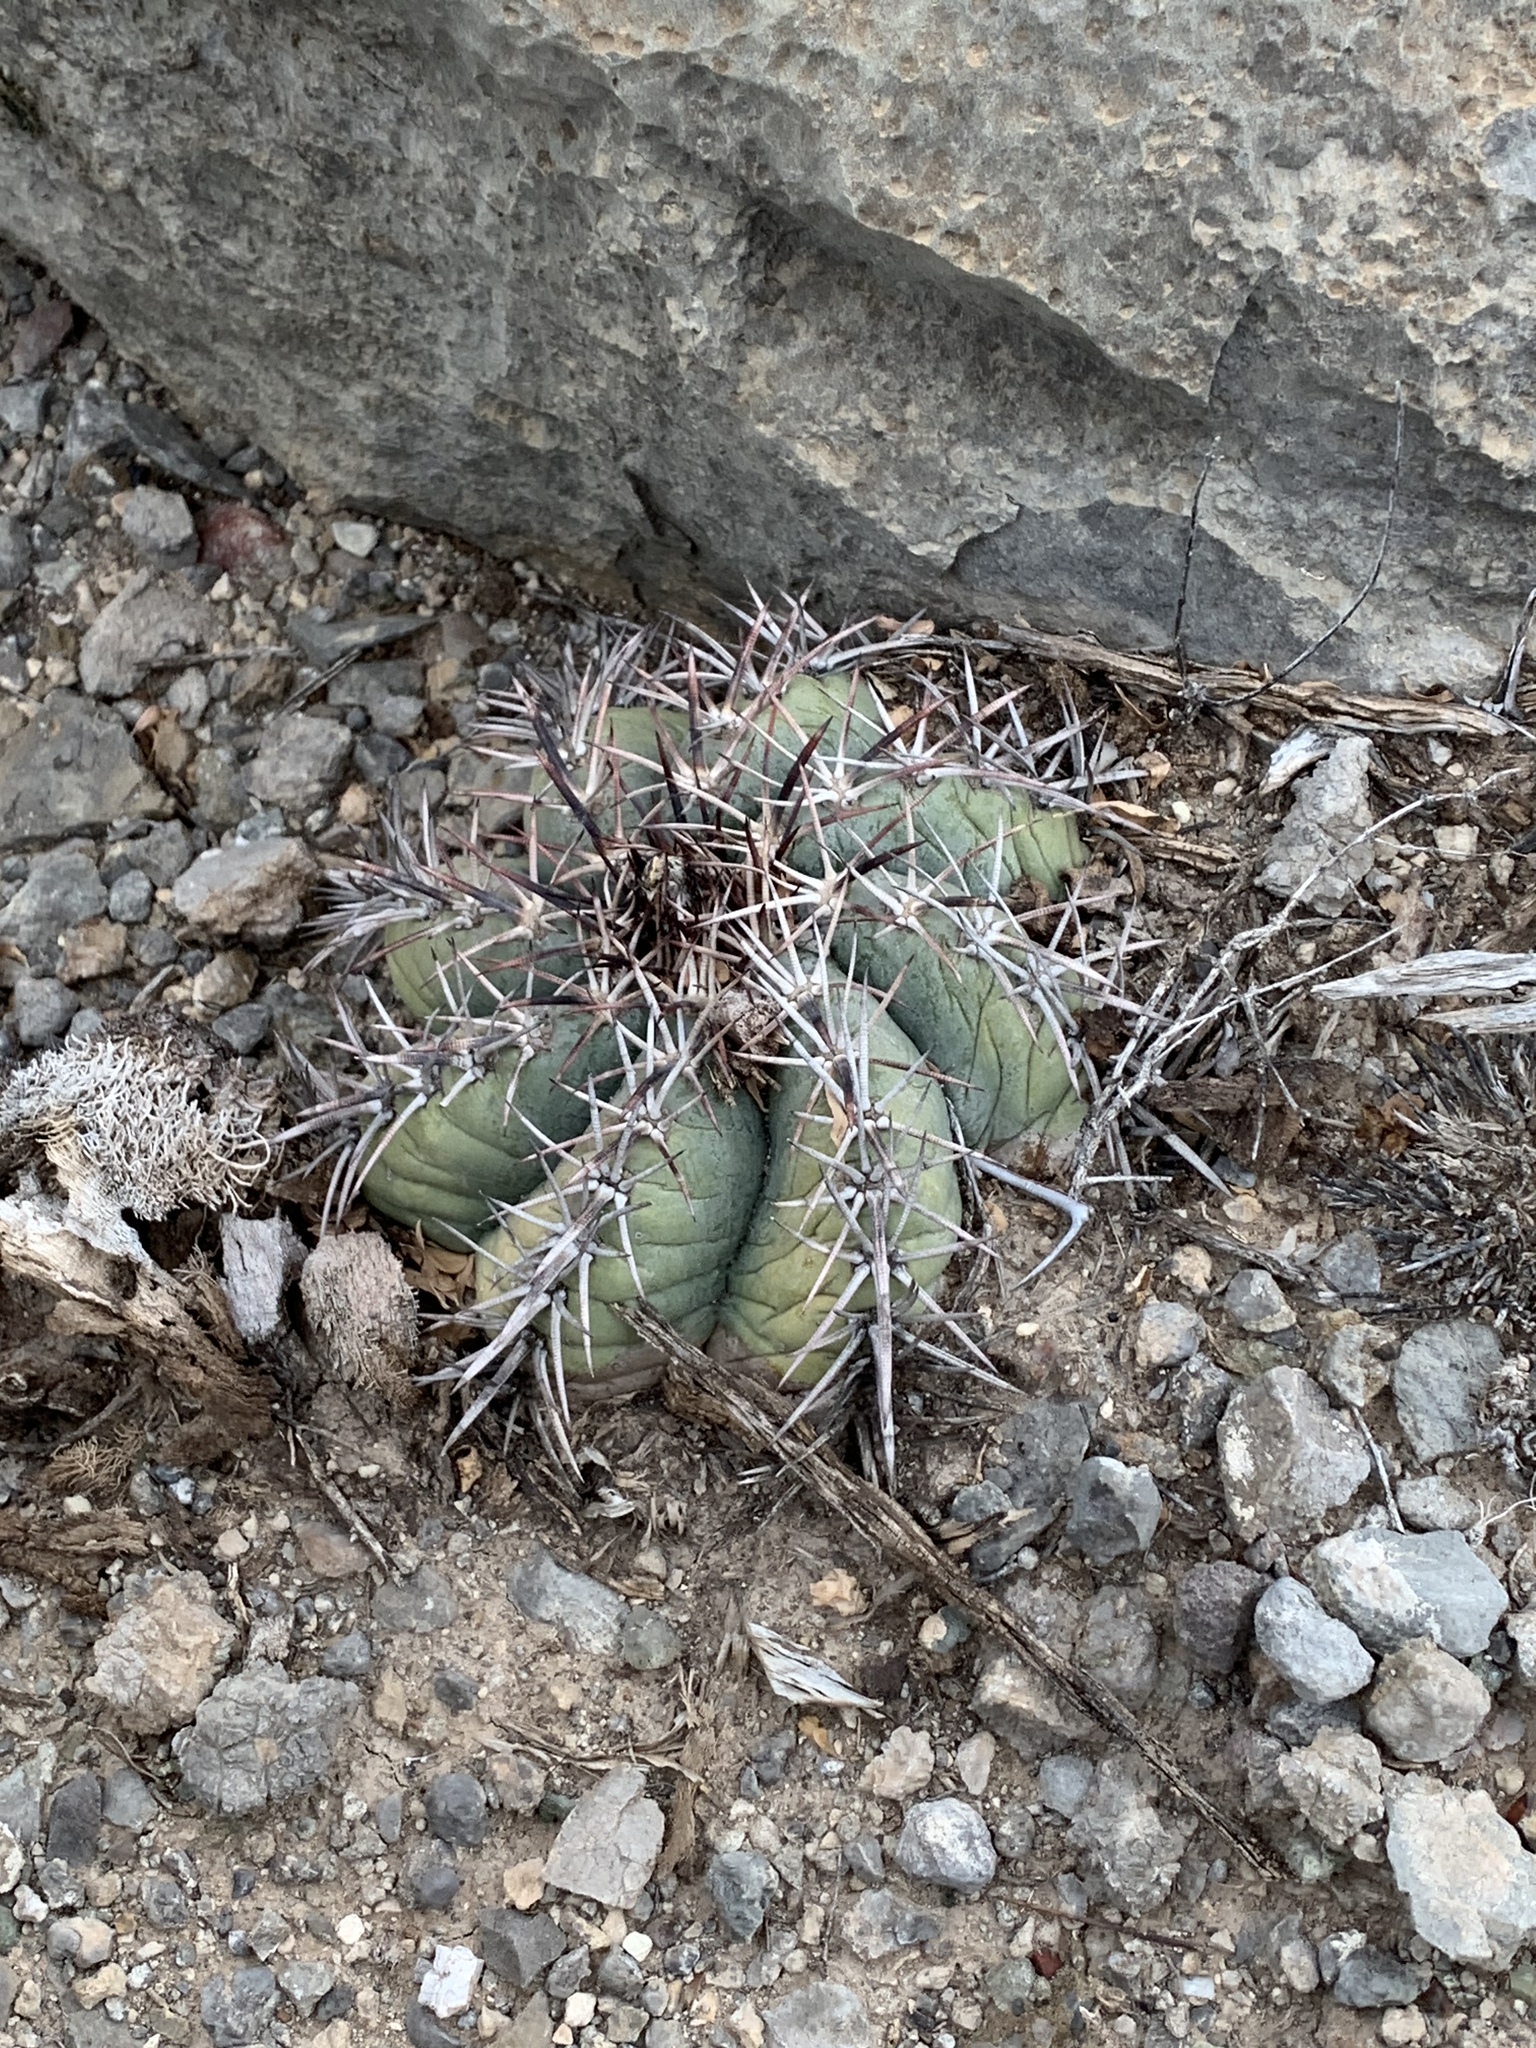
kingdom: Plantae
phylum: Tracheophyta
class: Magnoliopsida
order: Caryophyllales
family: Cactaceae
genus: Echinocactus
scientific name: Echinocactus horizonthalonius
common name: Devilshead
